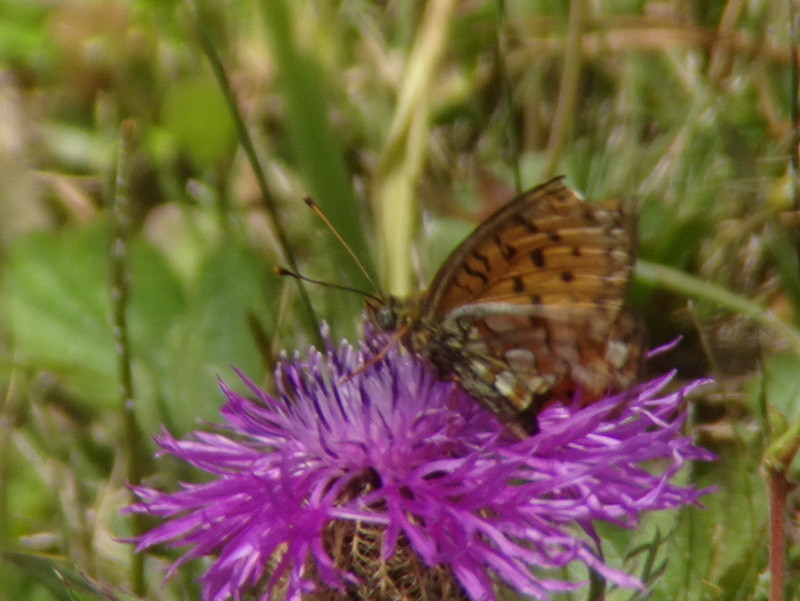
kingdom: Animalia
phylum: Arthropoda
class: Insecta
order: Lepidoptera
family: Nymphalidae
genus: Fabriciana
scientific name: Fabriciana niobe
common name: Niobe fritillary
